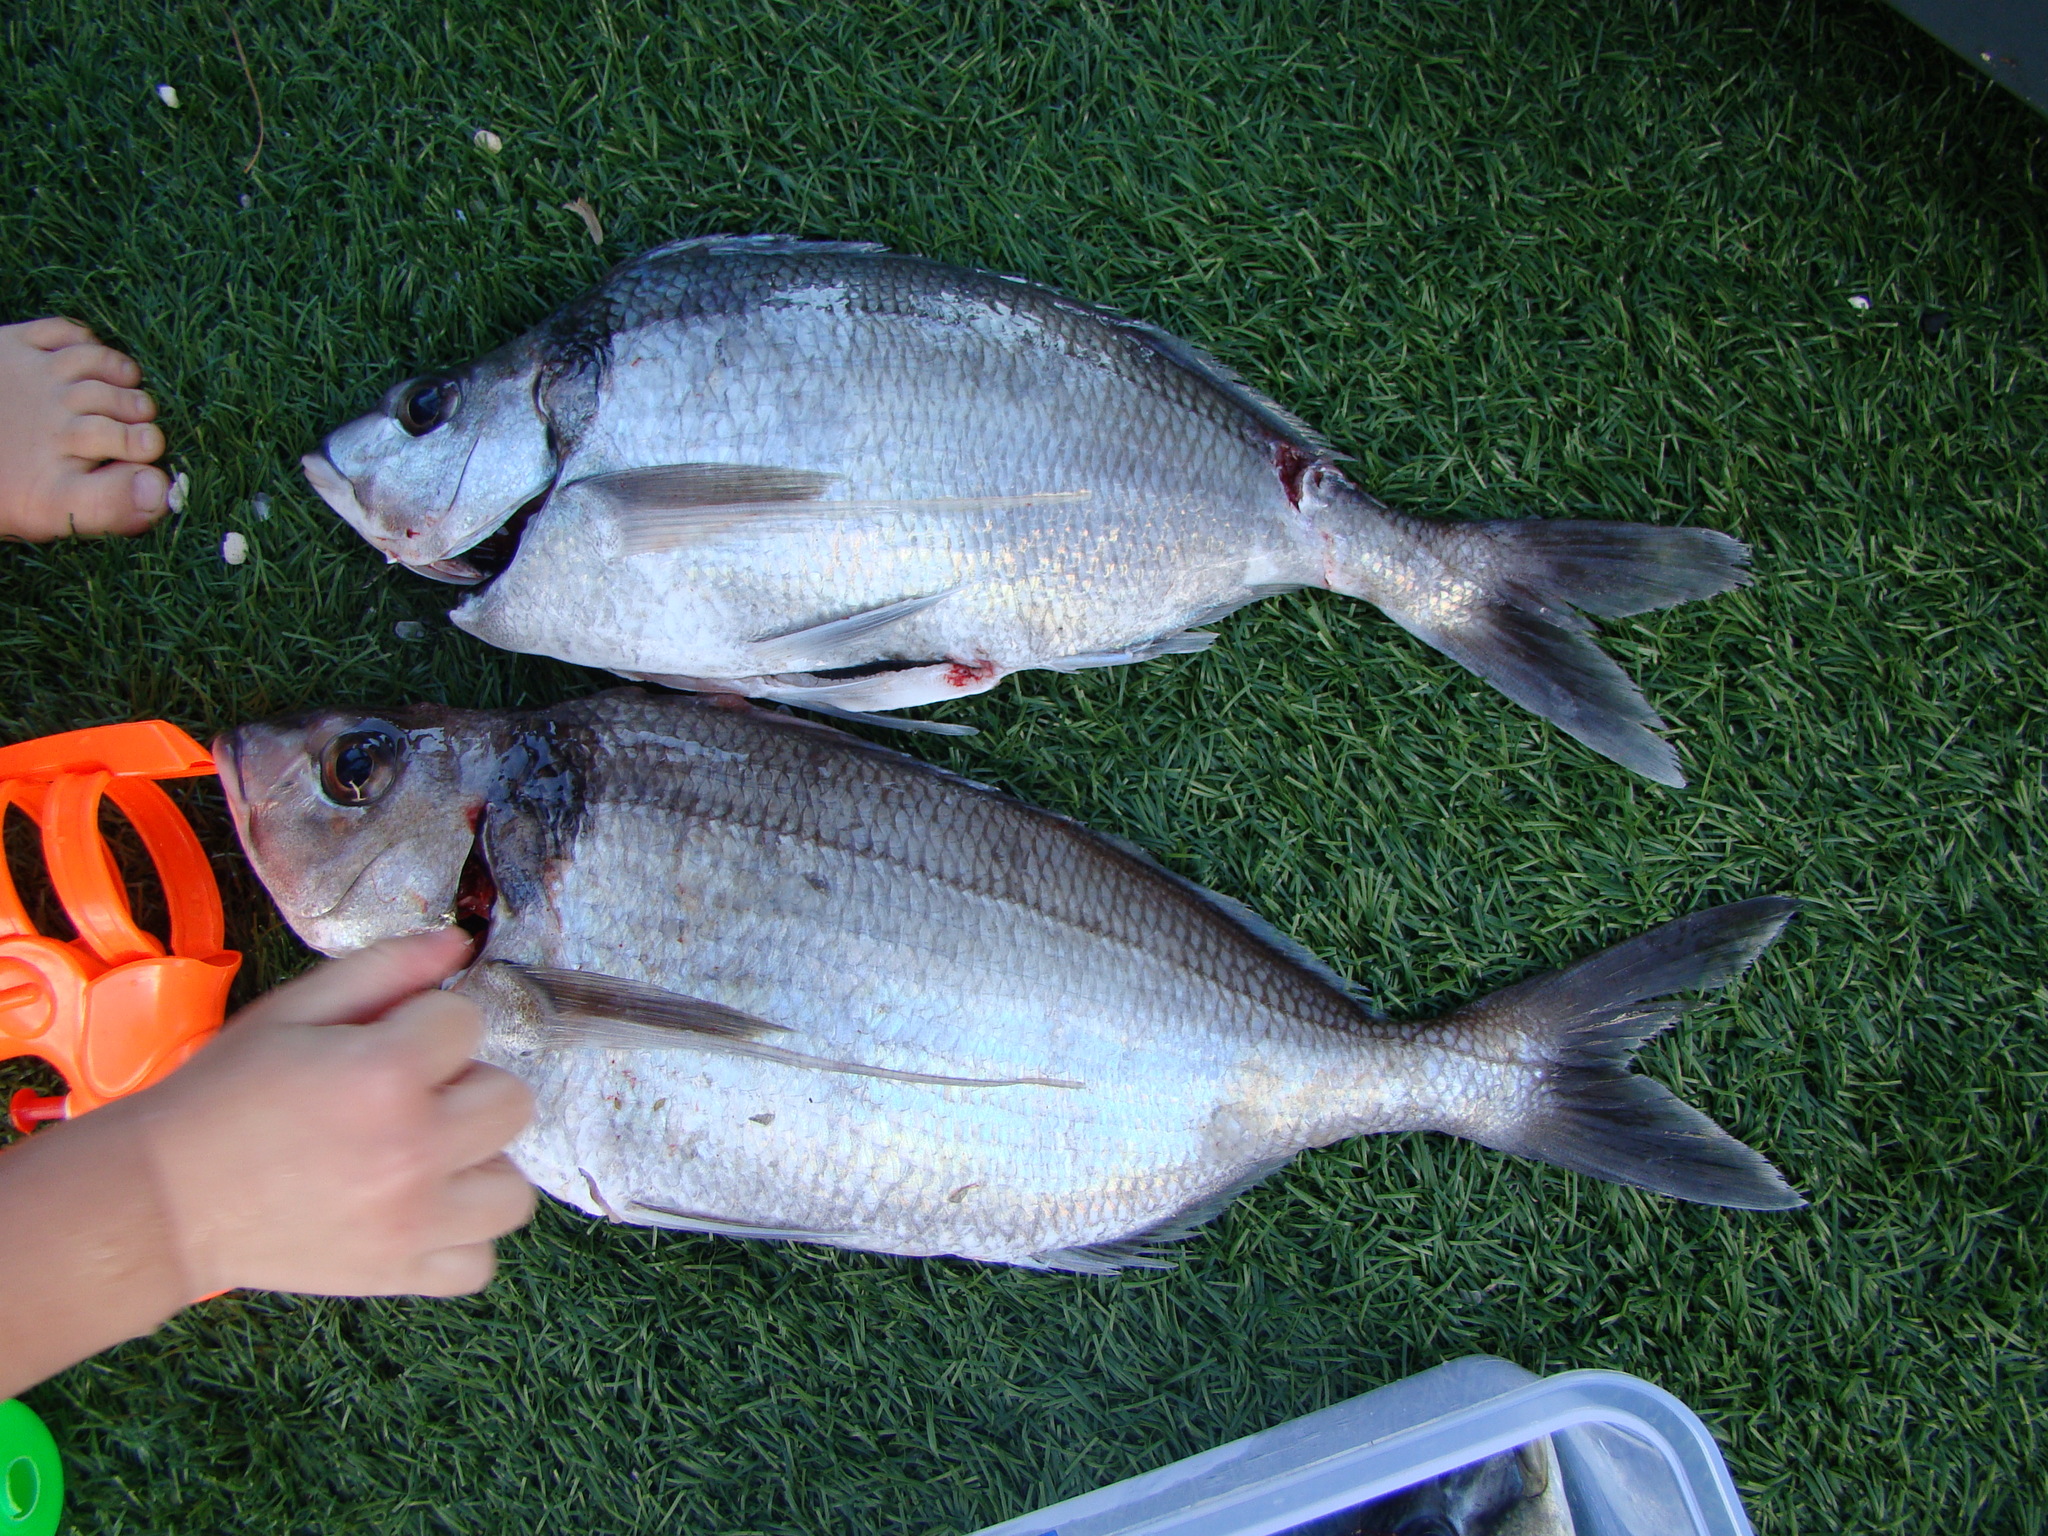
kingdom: Animalia
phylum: Chordata
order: Perciformes
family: Cheilodactylidae
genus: Nemadactylus
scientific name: Nemadactylus macropterus
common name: Tarakihi
